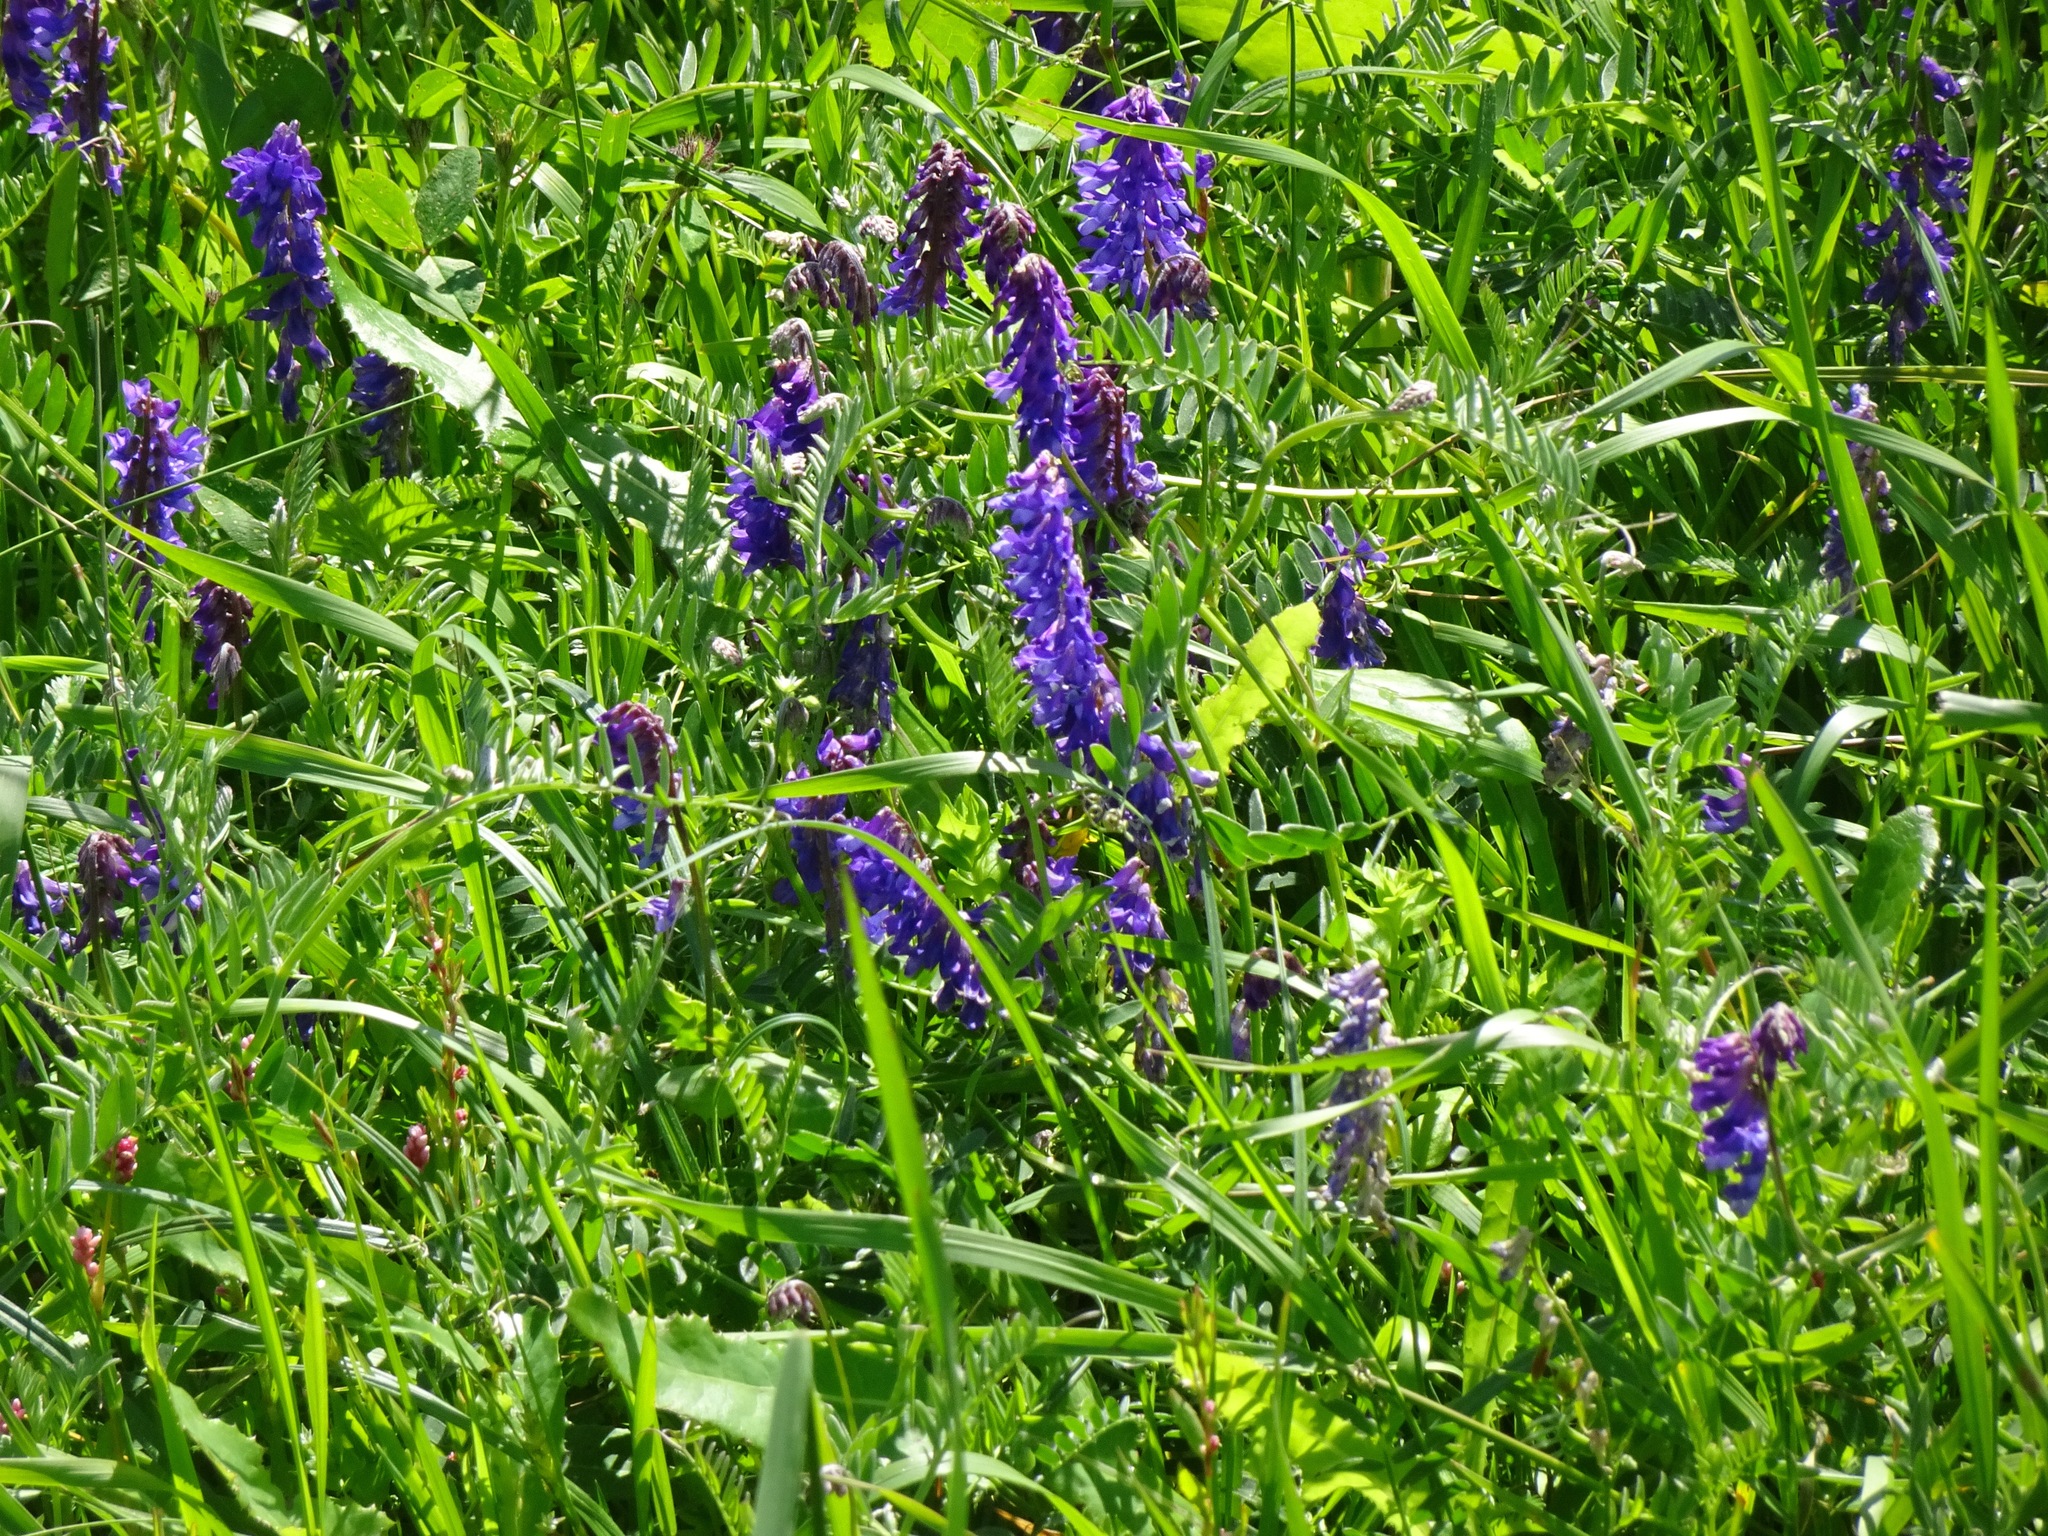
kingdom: Plantae
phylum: Tracheophyta
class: Magnoliopsida
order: Fabales
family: Fabaceae
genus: Vicia
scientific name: Vicia cracca
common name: Bird vetch
